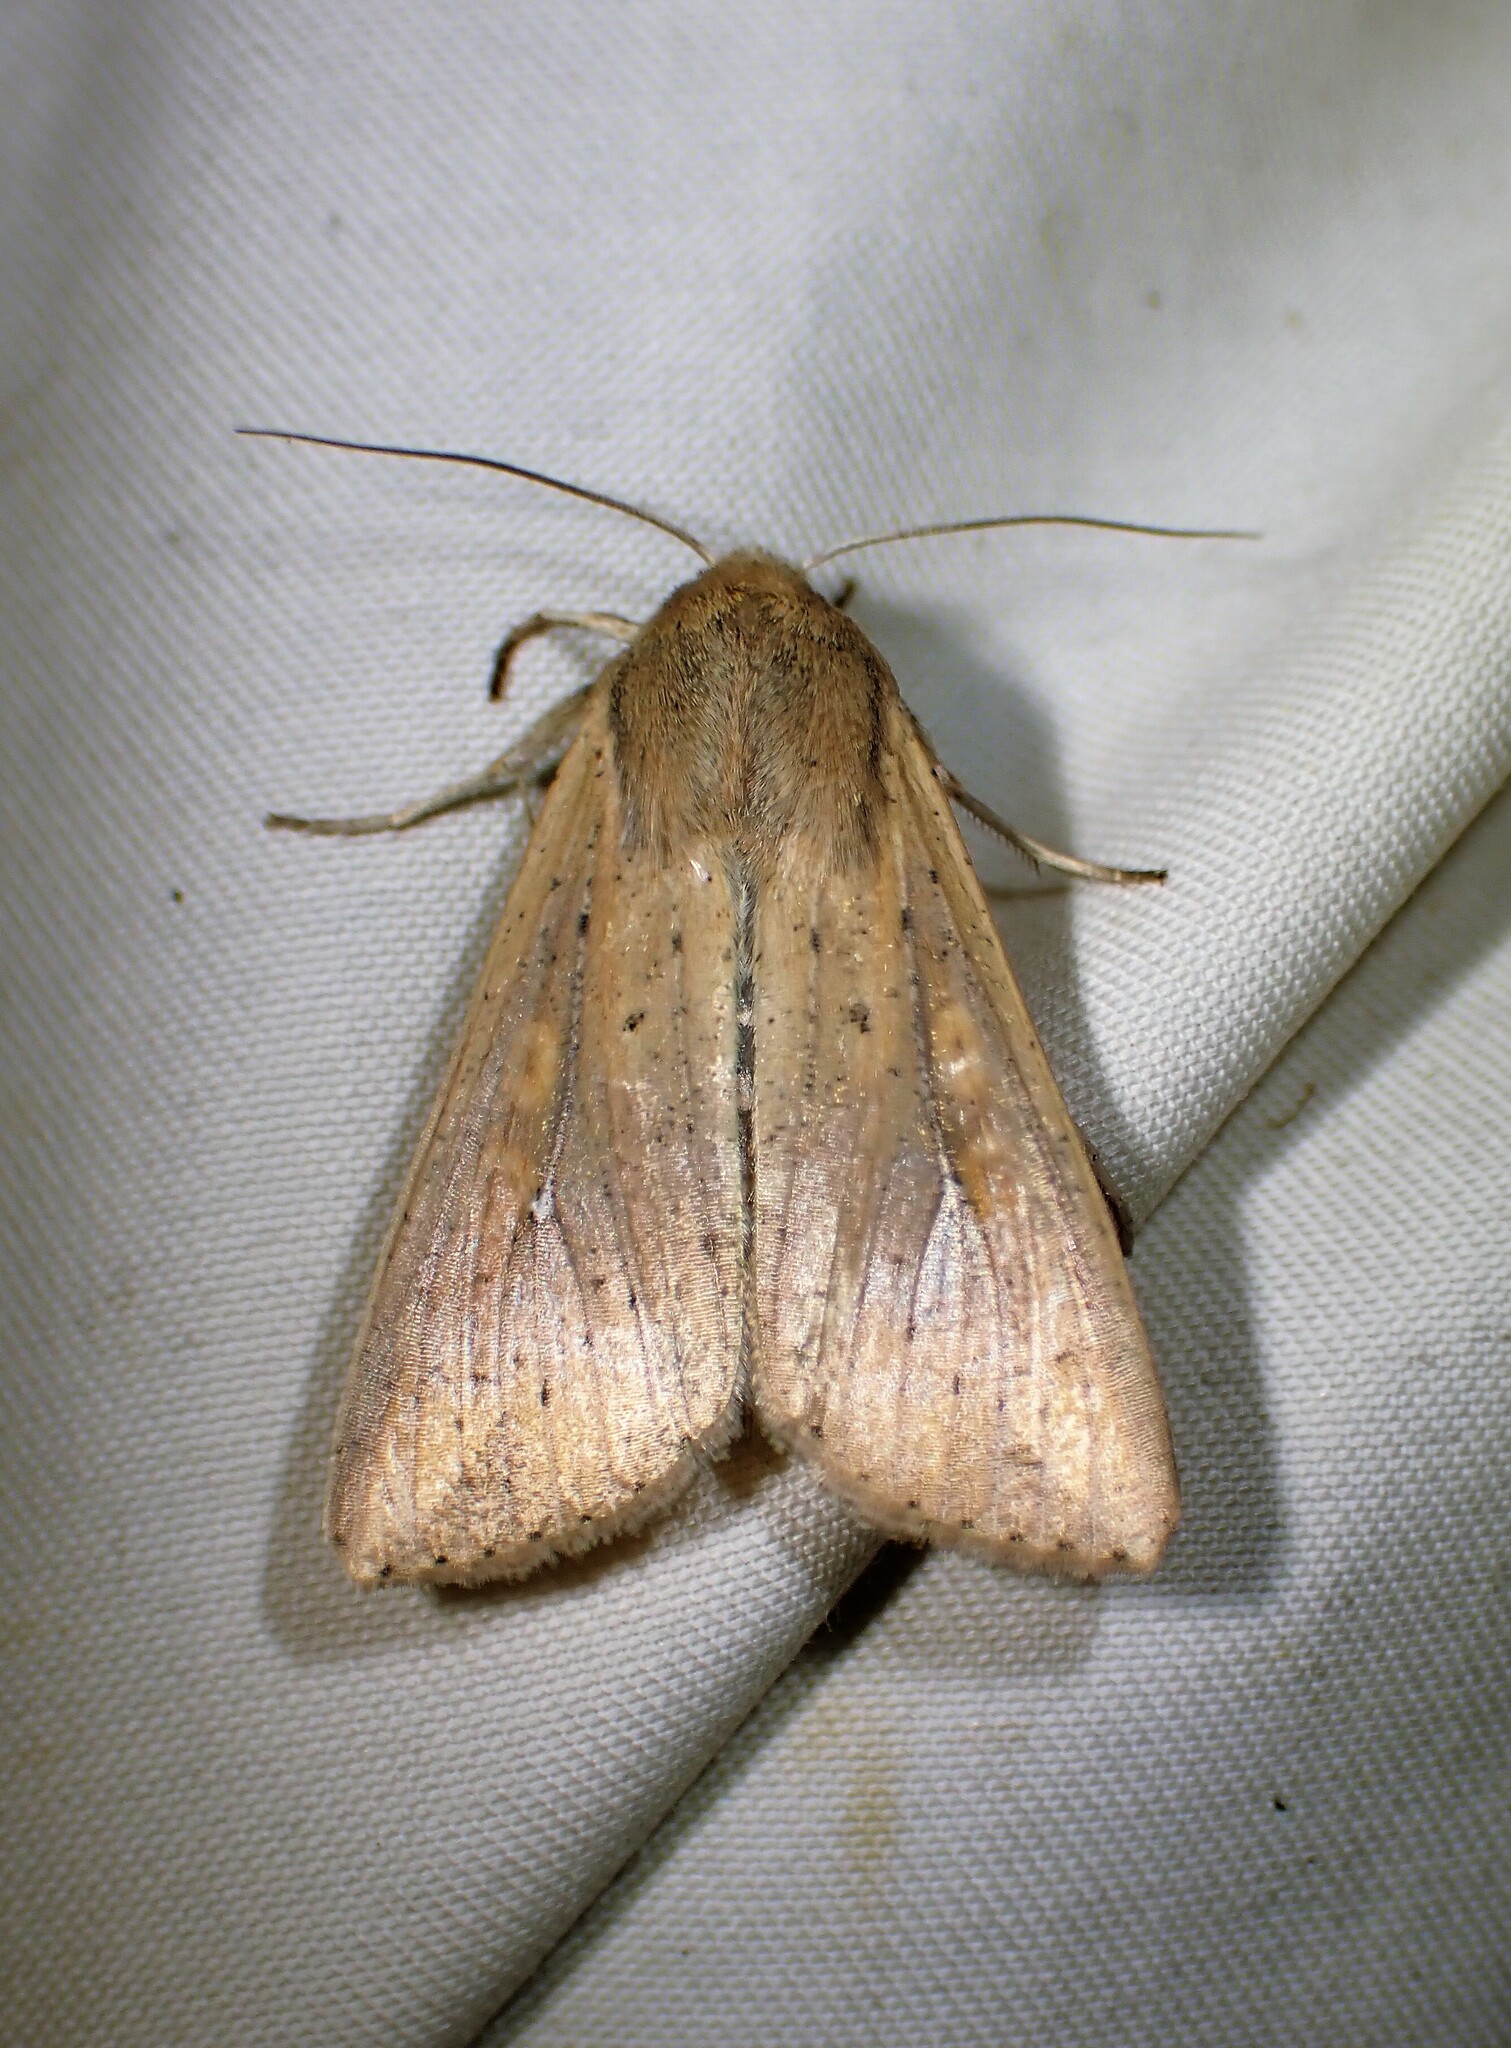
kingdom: Animalia
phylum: Arthropoda
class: Insecta
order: Lepidoptera
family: Noctuidae
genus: Mythimna
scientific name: Mythimna unipuncta
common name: White-speck
